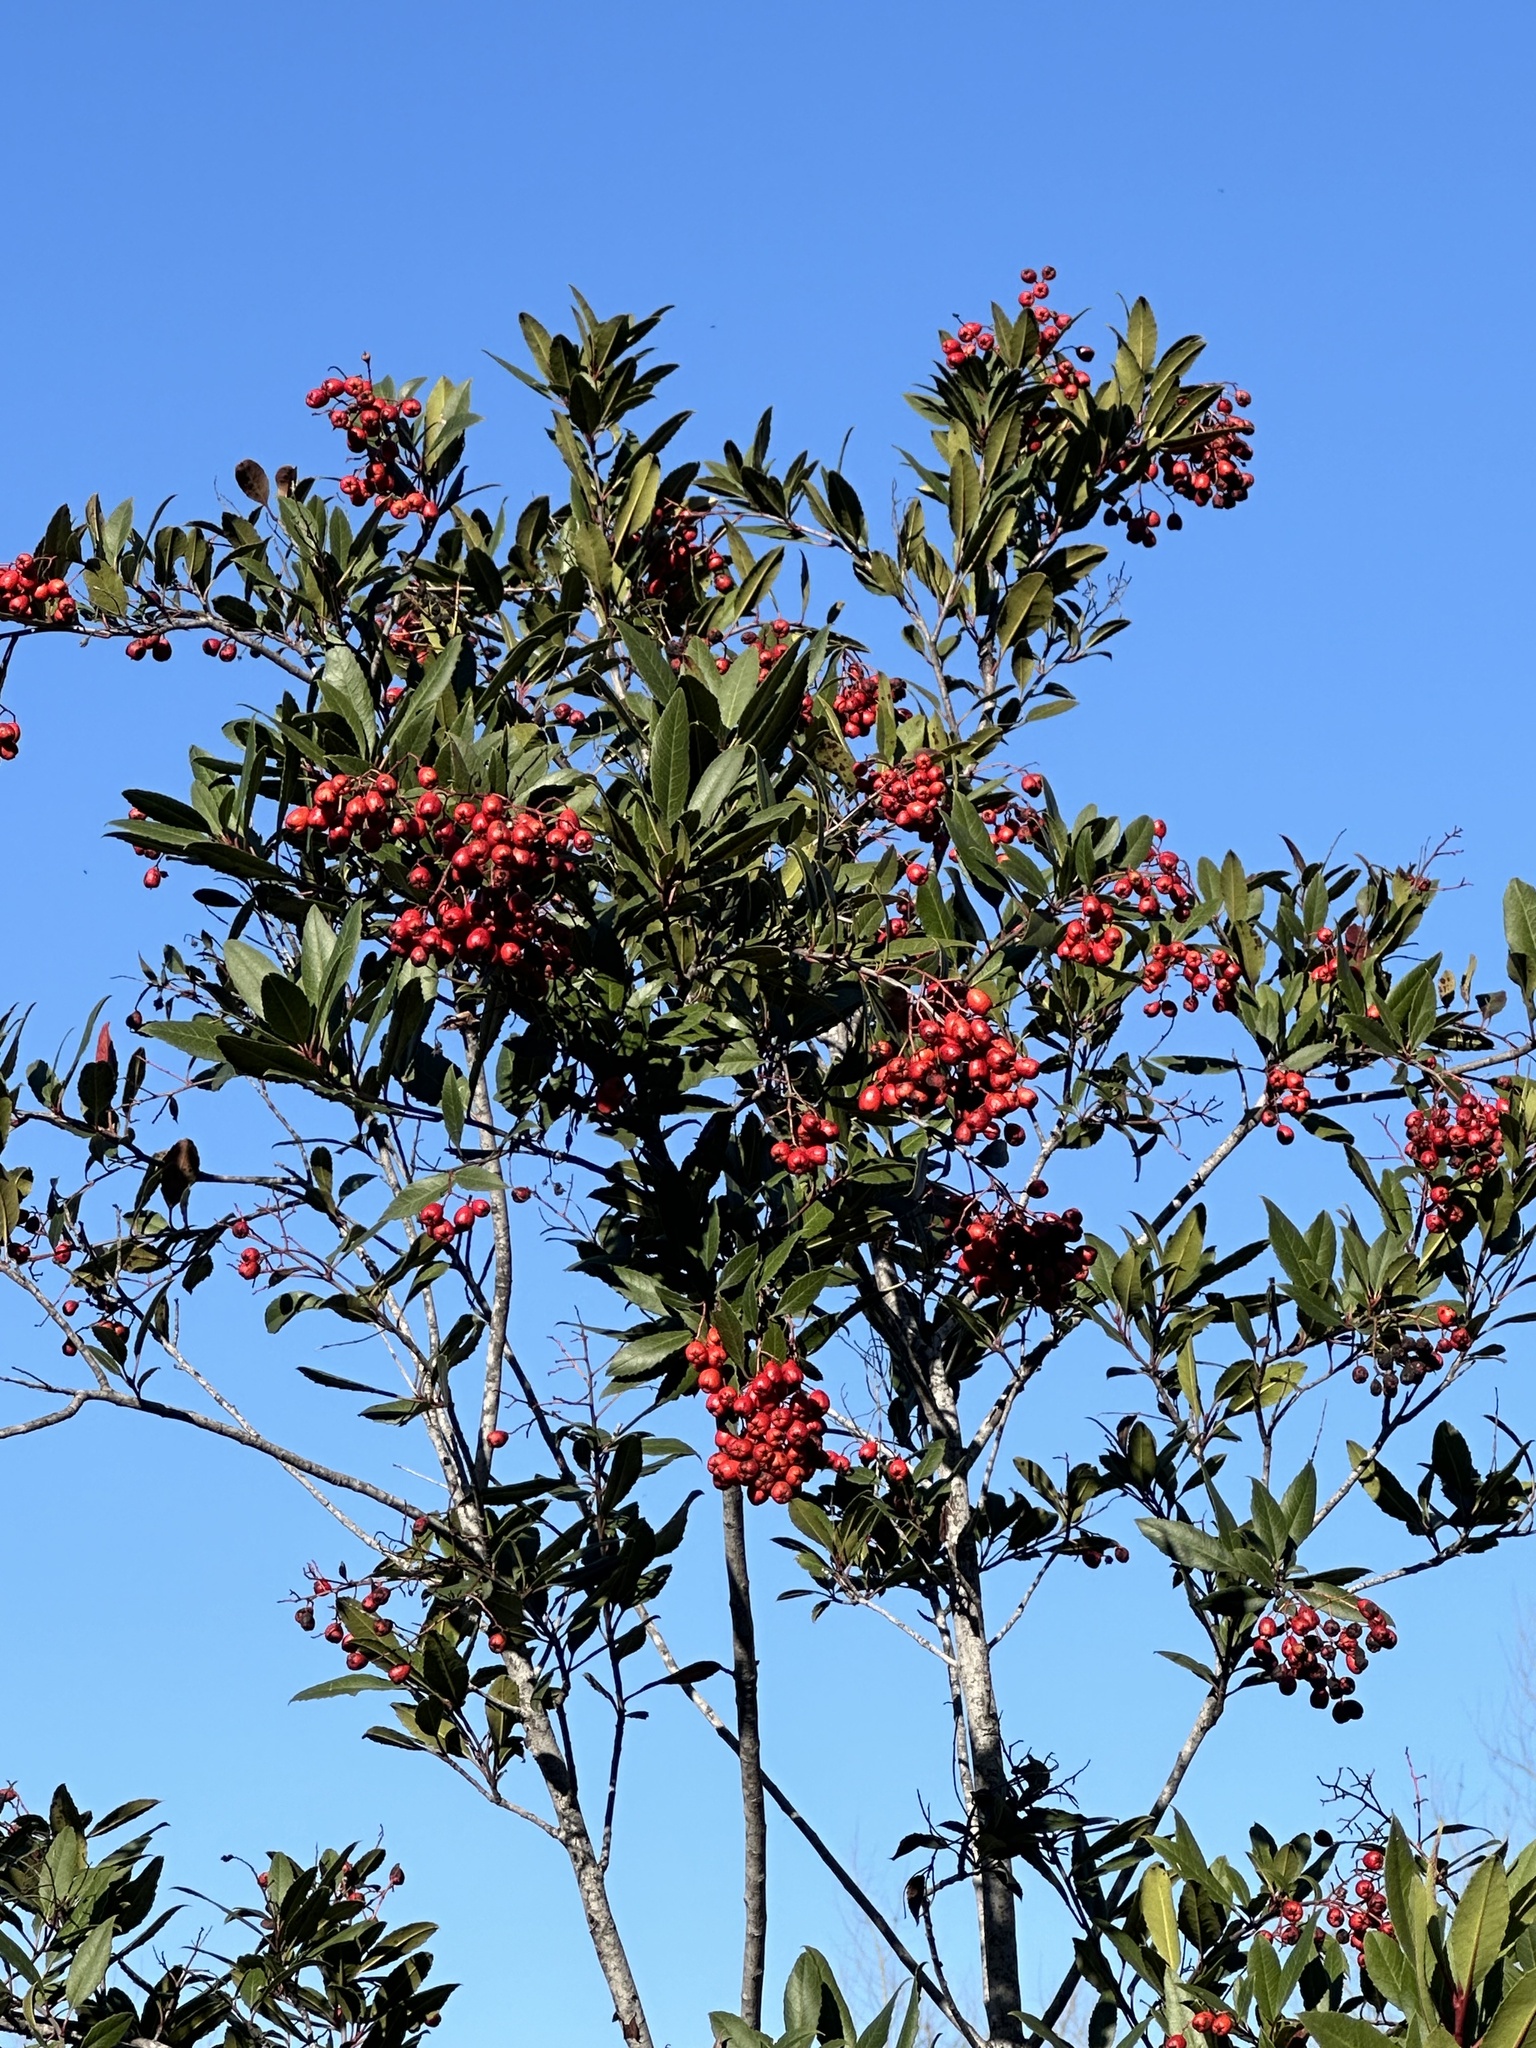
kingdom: Plantae
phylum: Tracheophyta
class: Magnoliopsida
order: Rosales
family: Rosaceae
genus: Heteromeles
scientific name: Heteromeles arbutifolia
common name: California-holly
